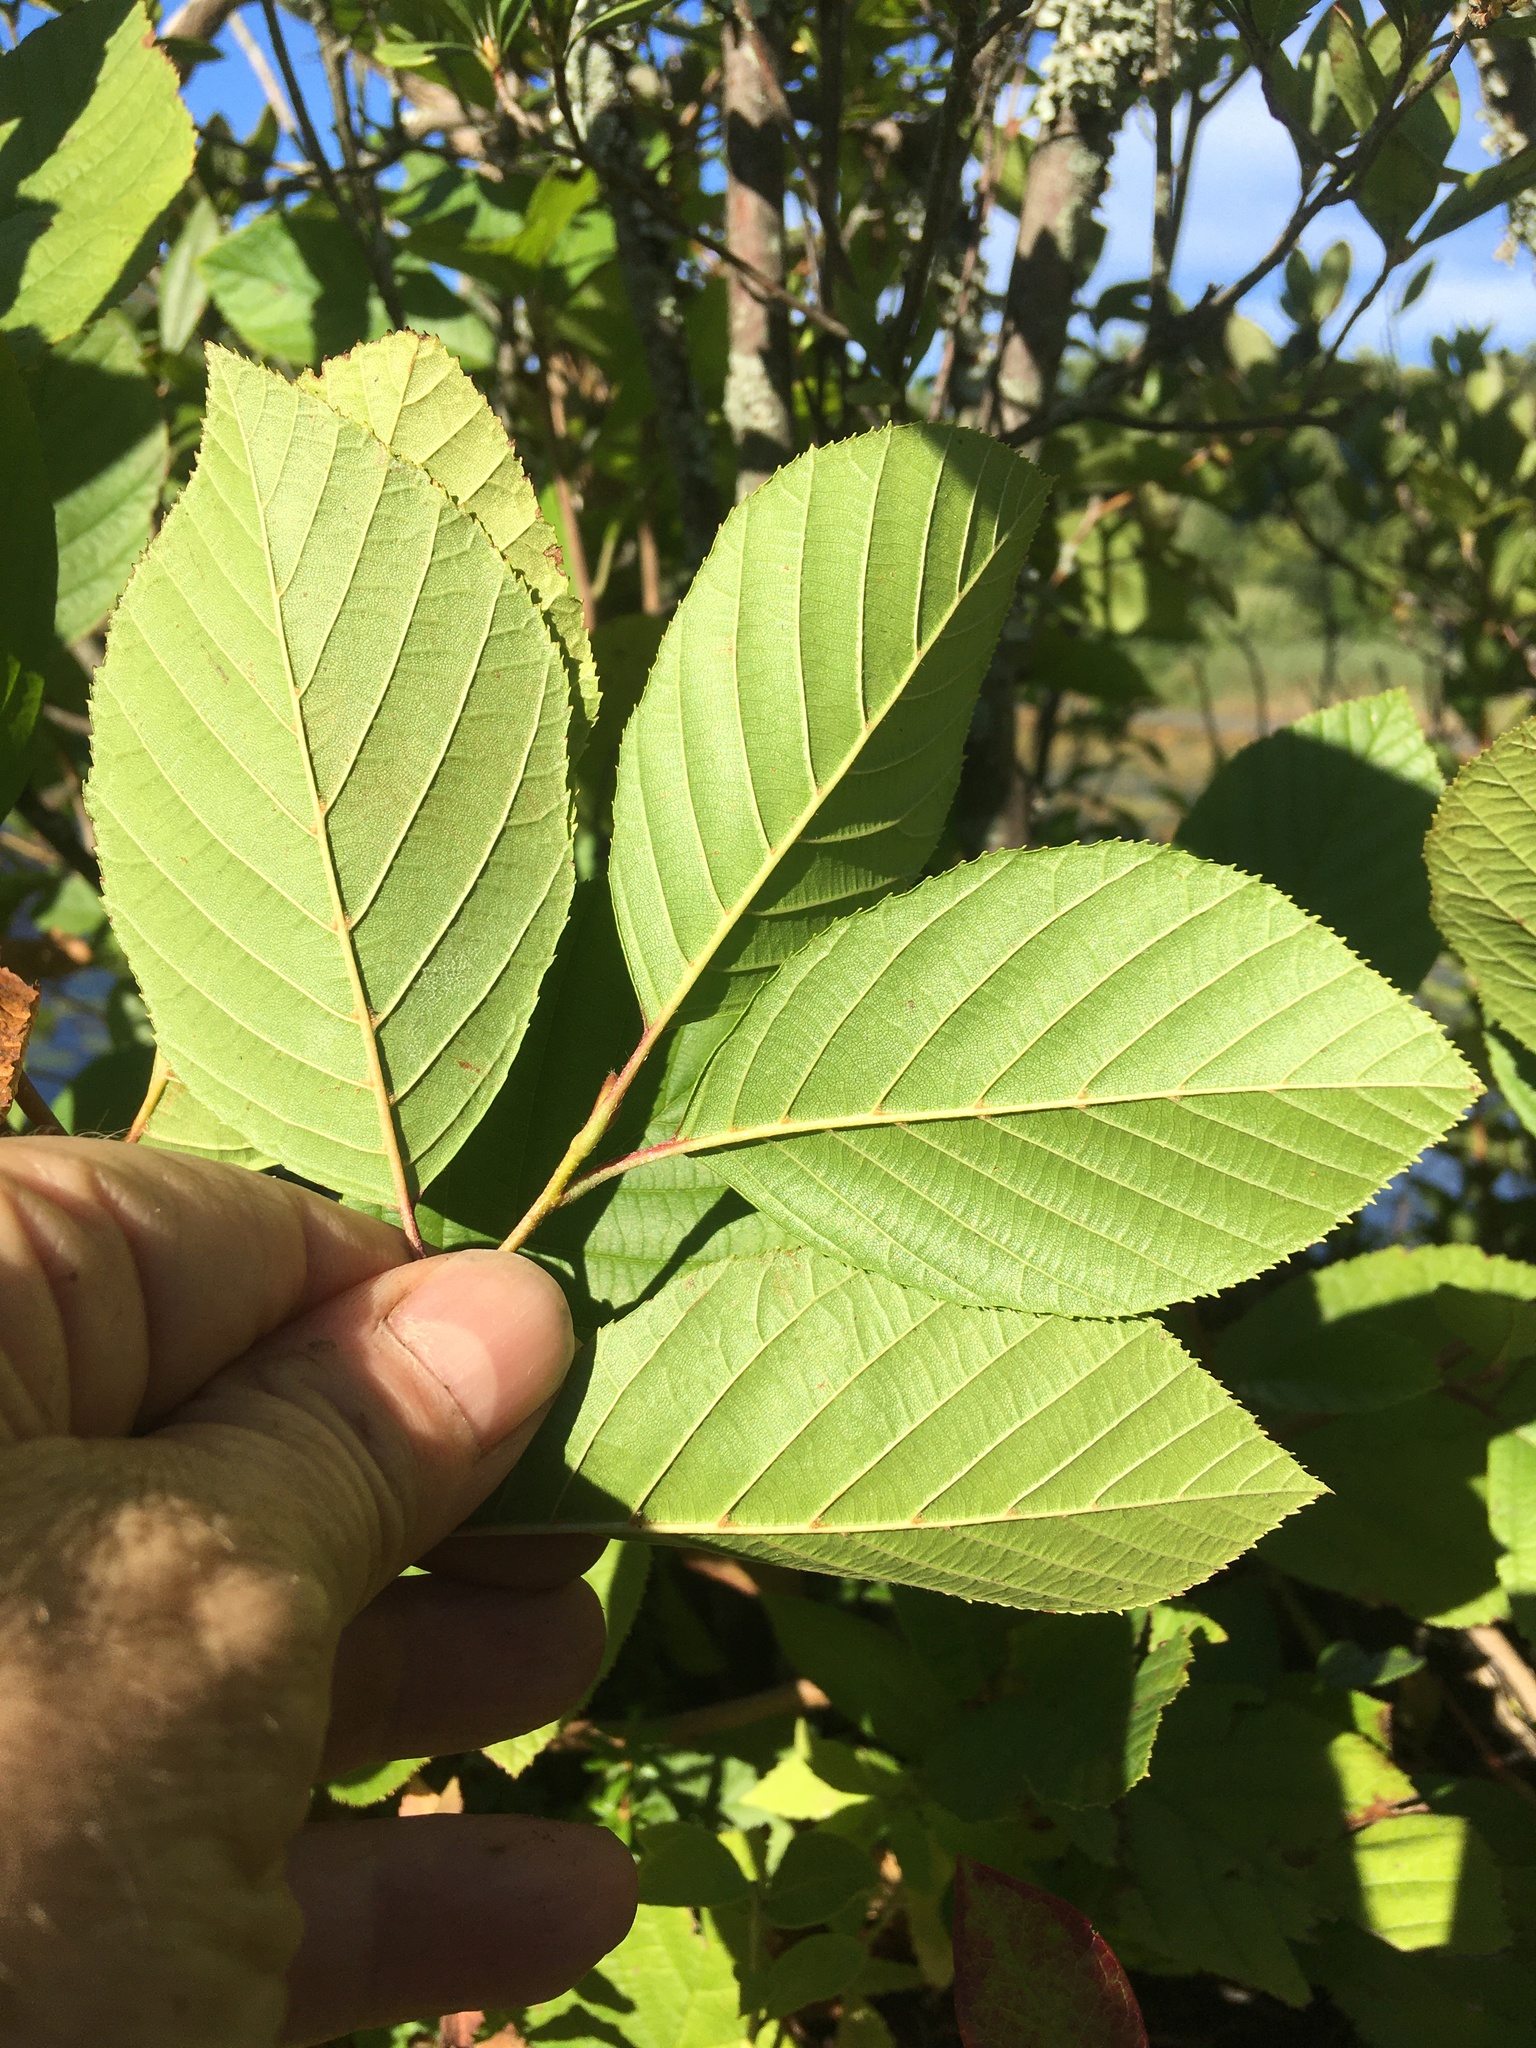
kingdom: Plantae
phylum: Tracheophyta
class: Magnoliopsida
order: Fagales
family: Betulaceae
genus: Alnus
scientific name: Alnus serrulata
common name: Hazel alder
